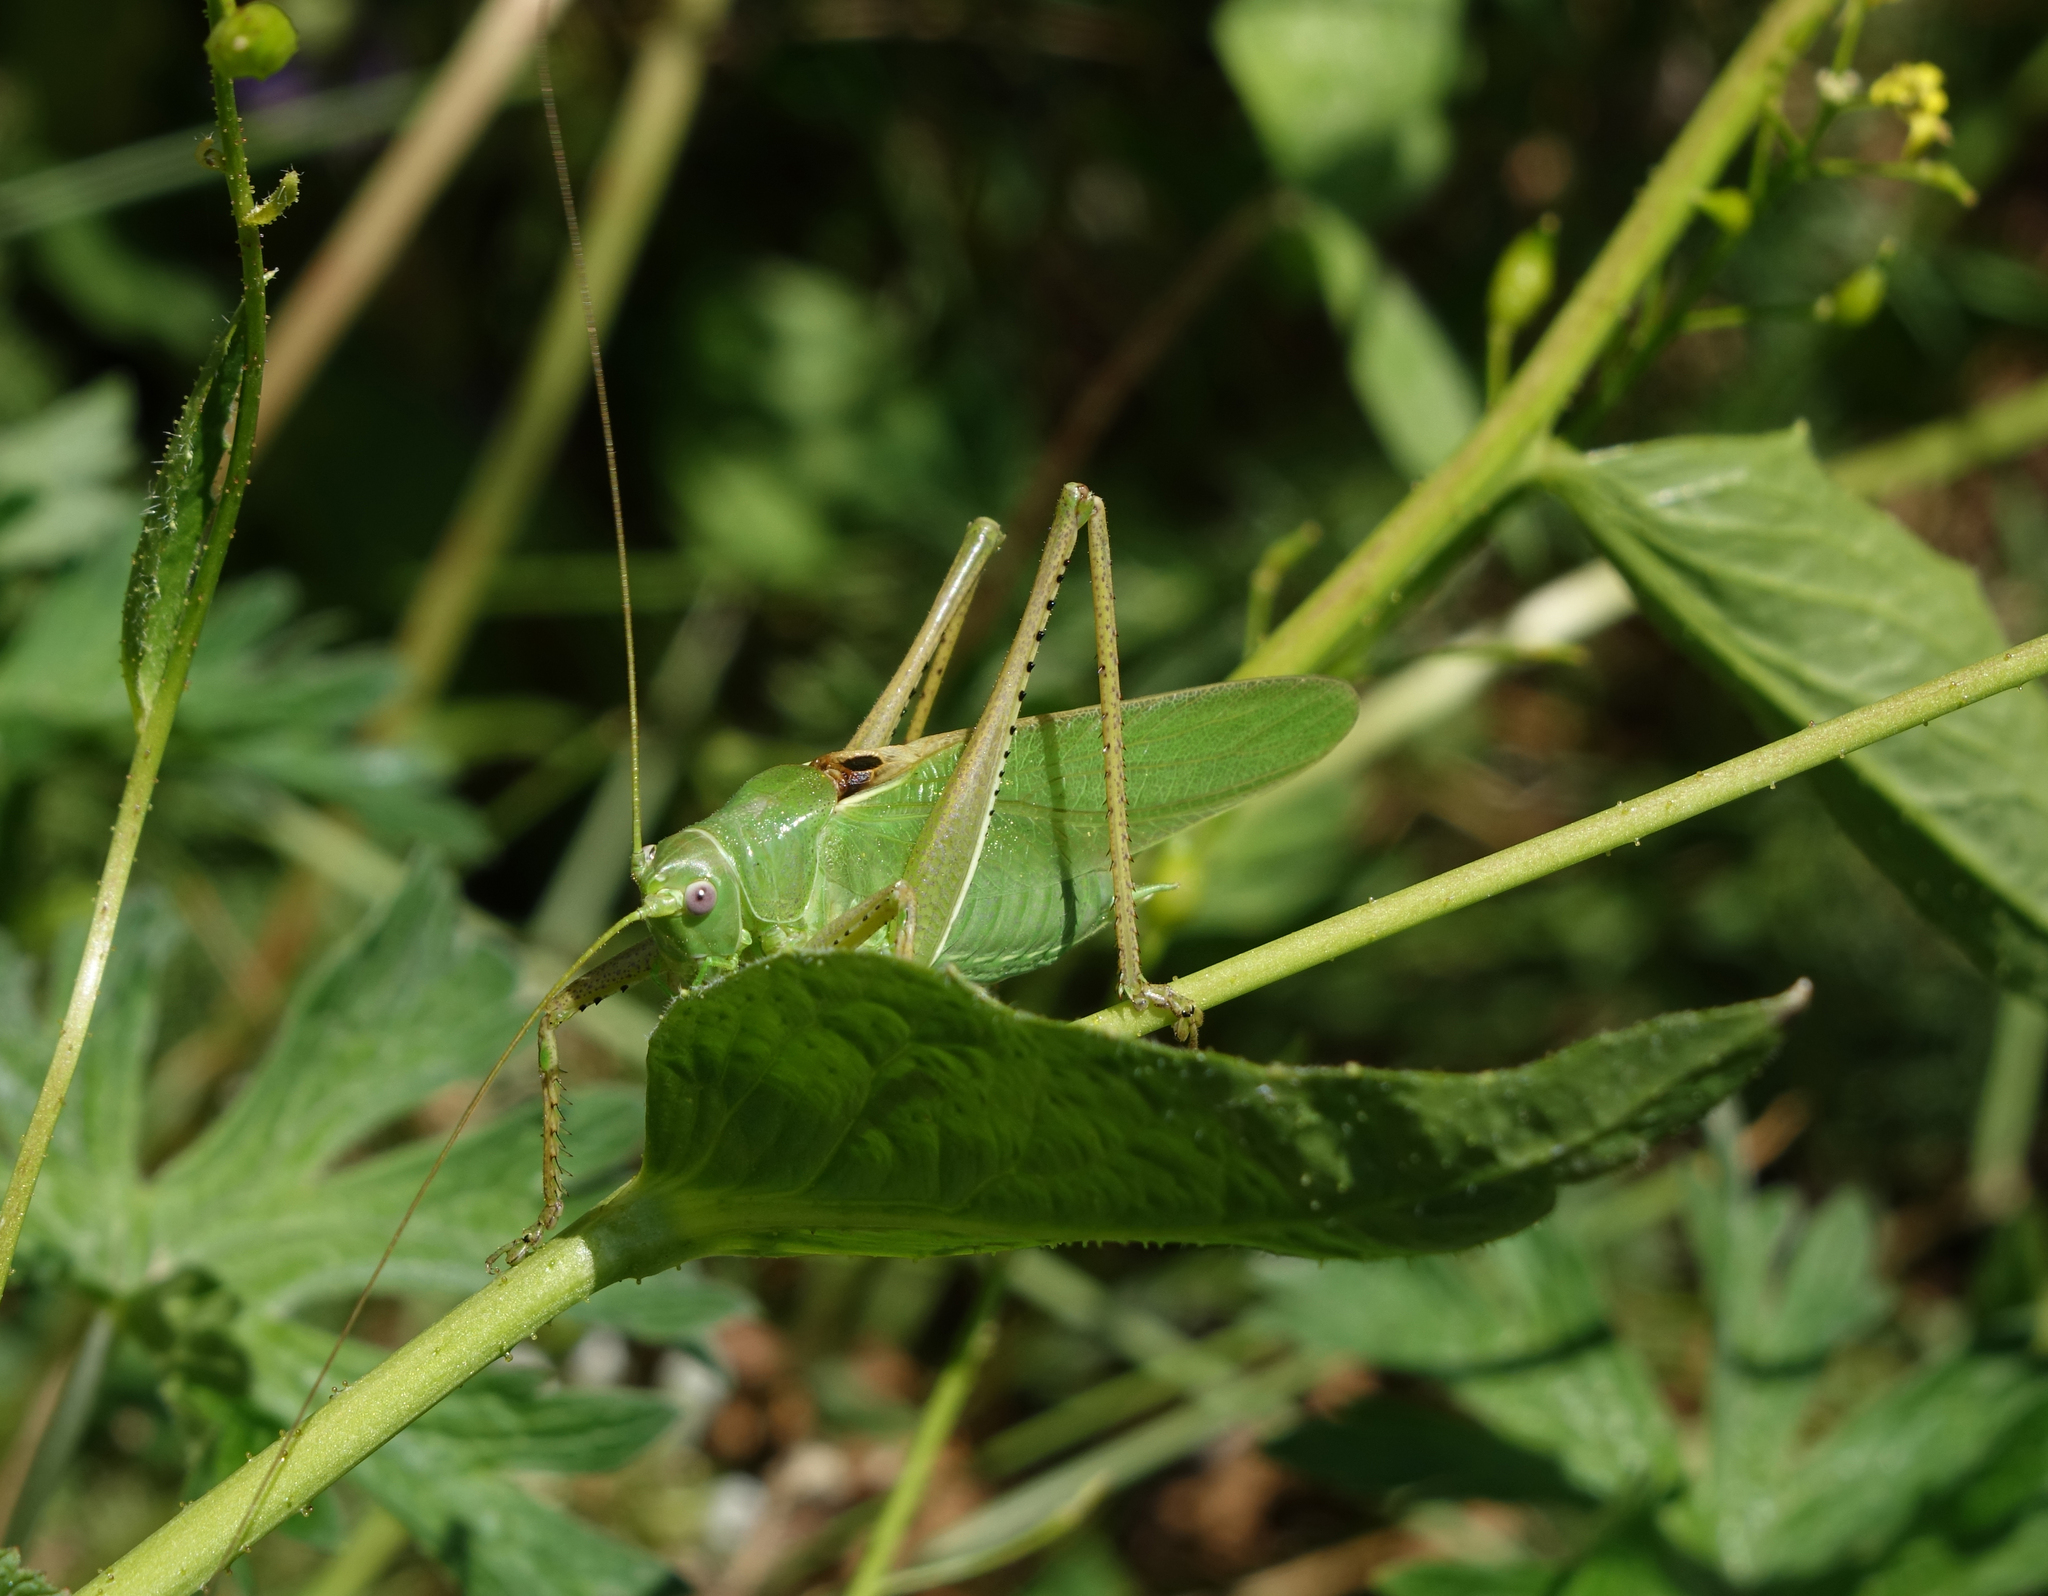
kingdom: Animalia
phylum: Arthropoda
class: Insecta
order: Orthoptera
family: Tettigoniidae
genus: Tettigonia
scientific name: Tettigonia caudata
